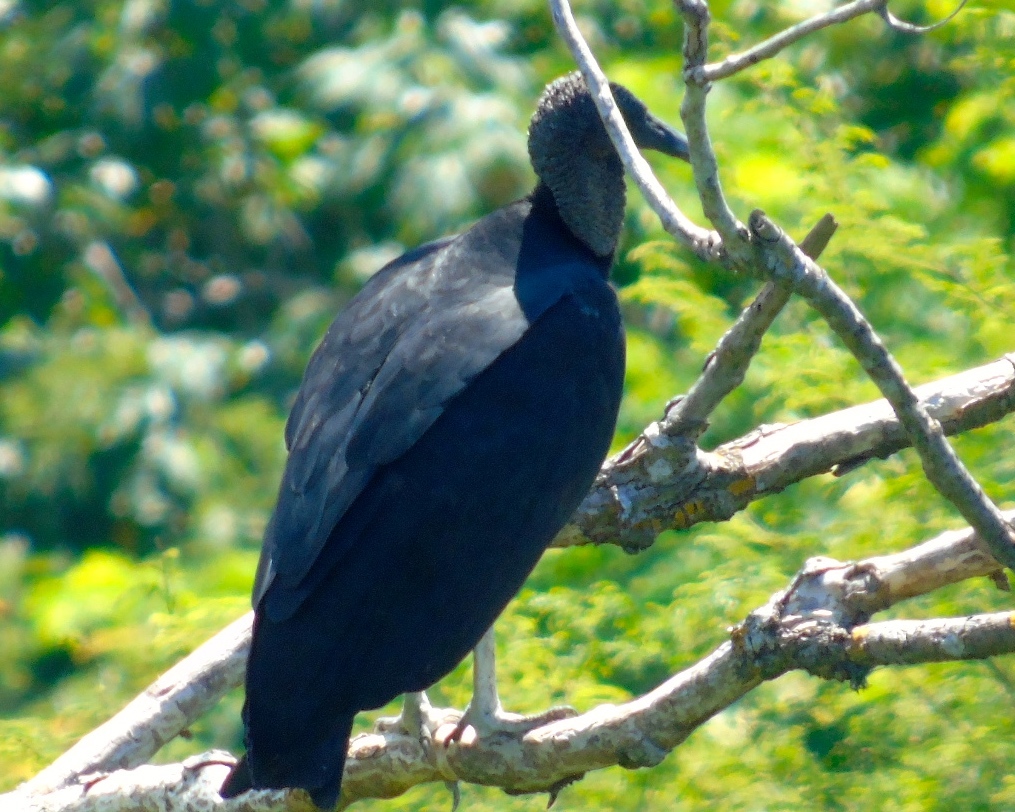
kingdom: Animalia
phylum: Chordata
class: Aves
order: Accipitriformes
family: Cathartidae
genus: Coragyps
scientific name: Coragyps atratus
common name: Black vulture
